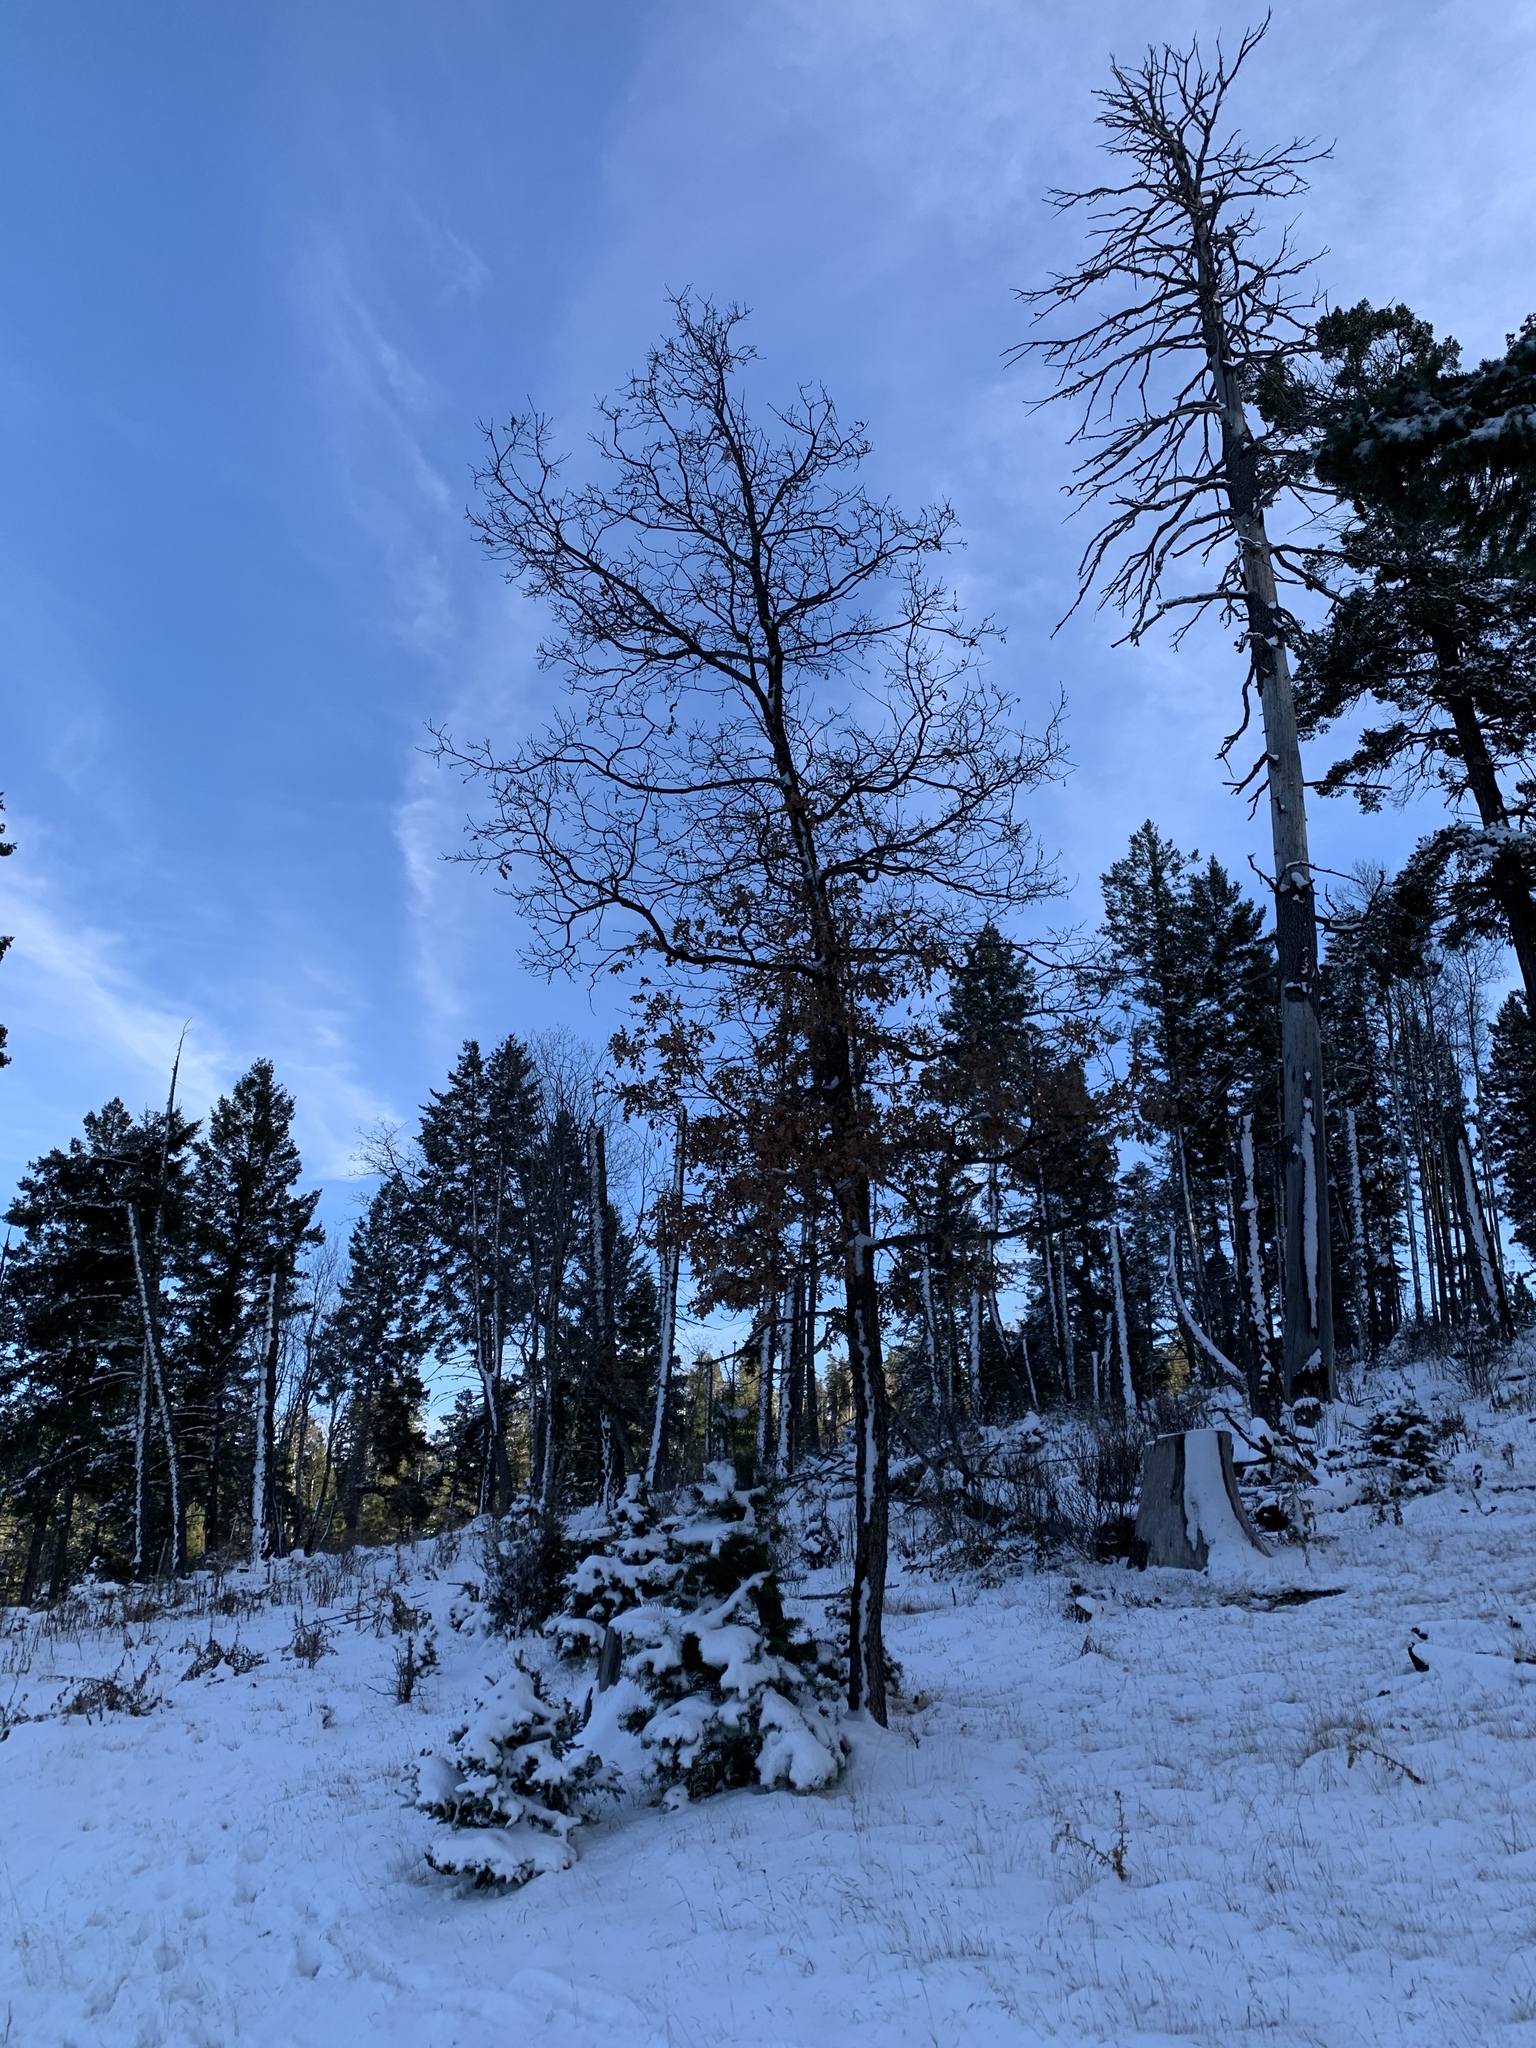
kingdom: Plantae
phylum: Tracheophyta
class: Magnoliopsida
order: Fagales
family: Fagaceae
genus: Quercus
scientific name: Quercus gambelii
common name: Gambel oak
